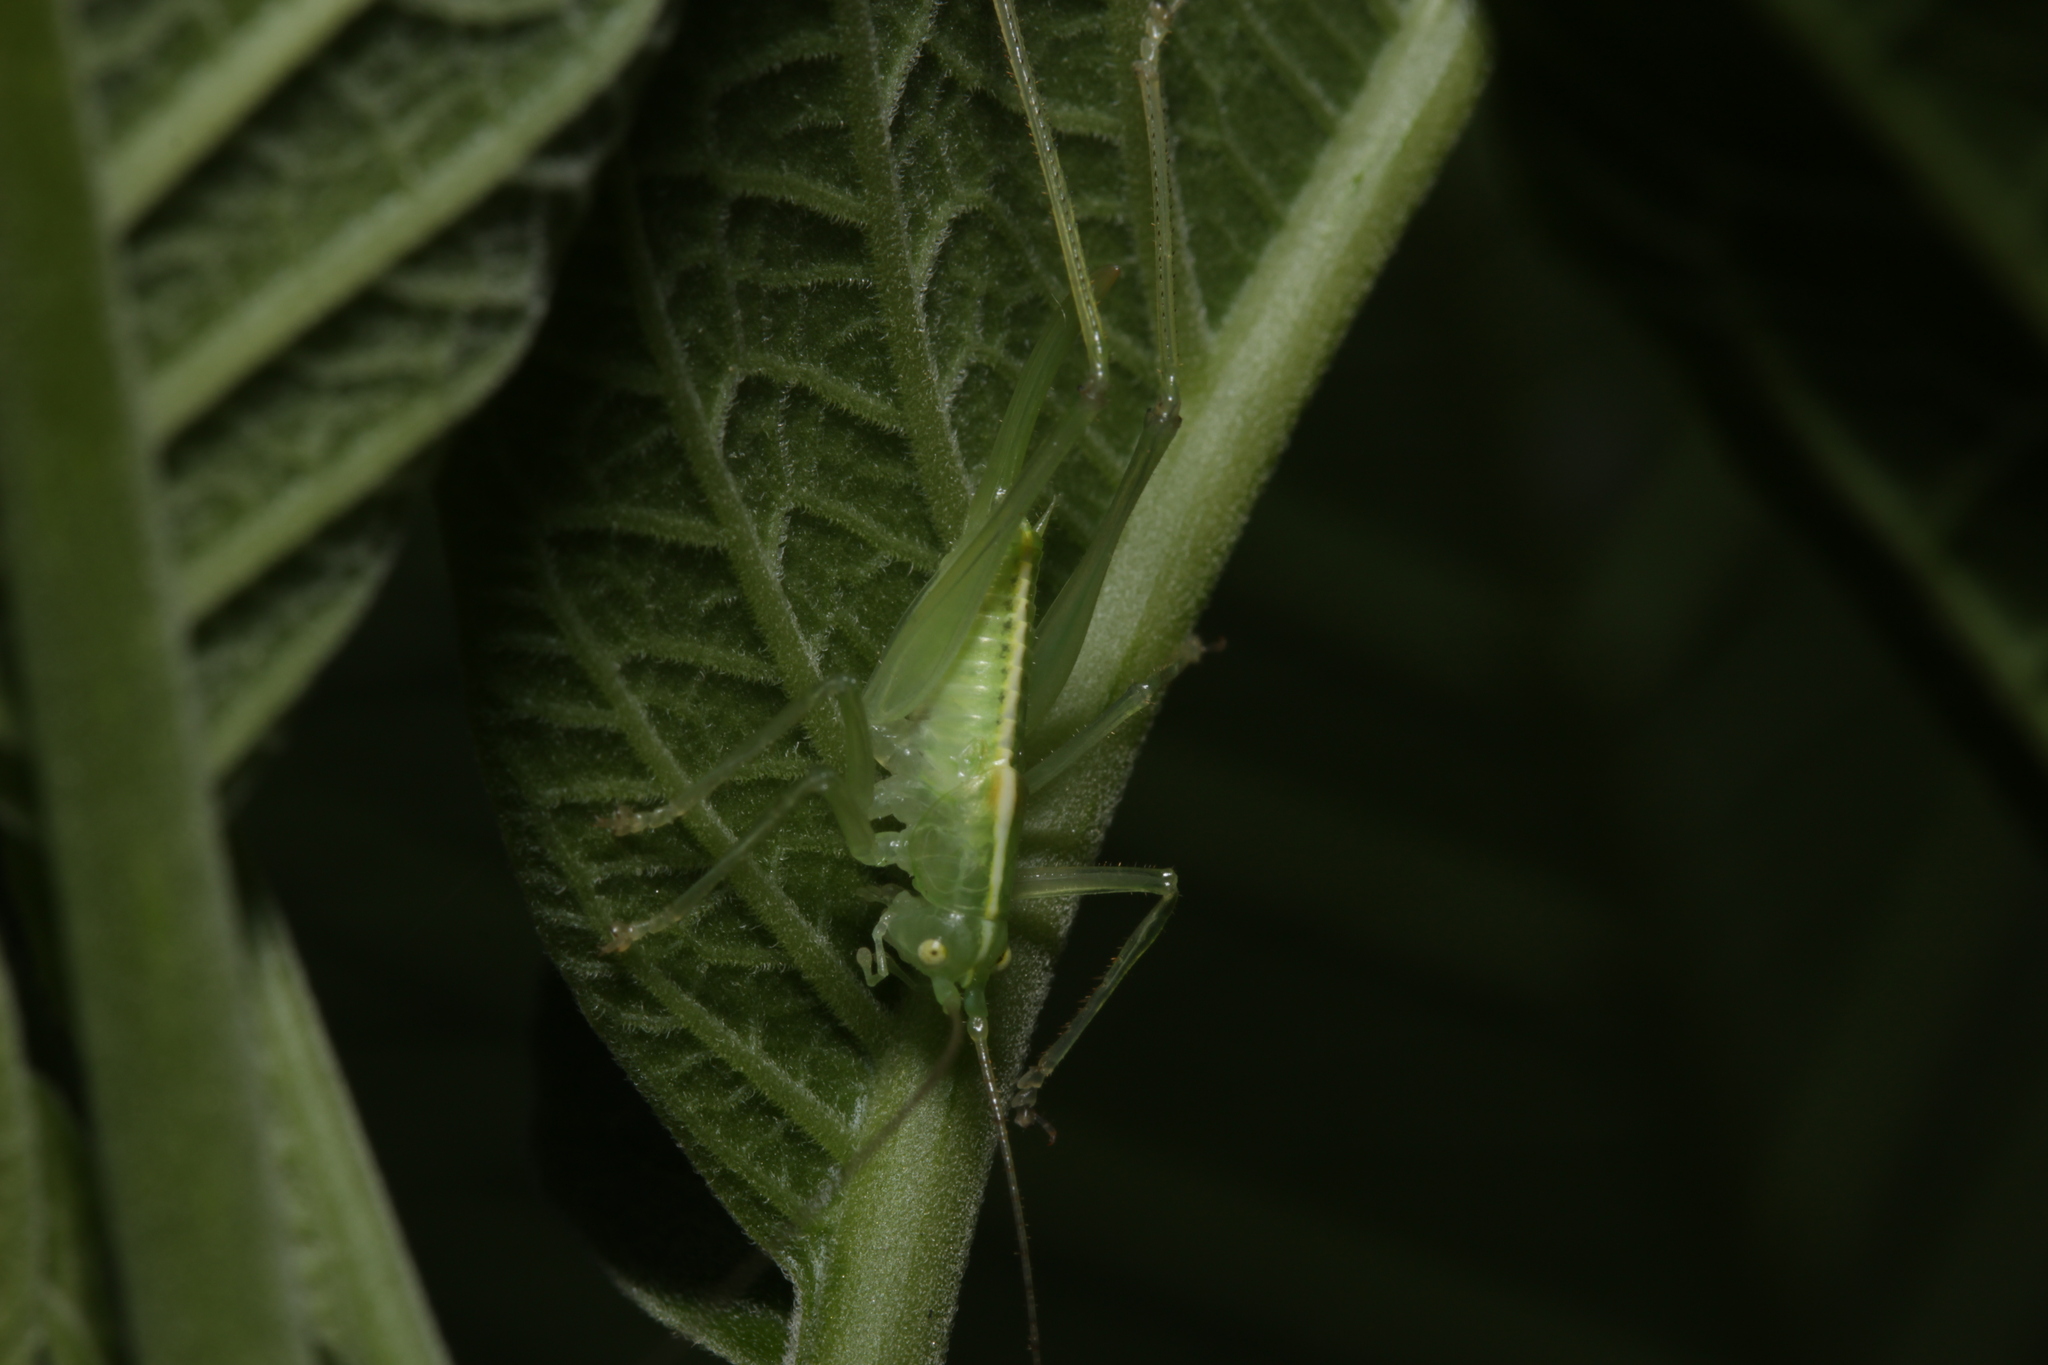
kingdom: Animalia
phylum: Arthropoda
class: Insecta
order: Orthoptera
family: Tettigoniidae
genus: Meconema
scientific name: Meconema meridionale
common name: Southern oak bush-cricket
